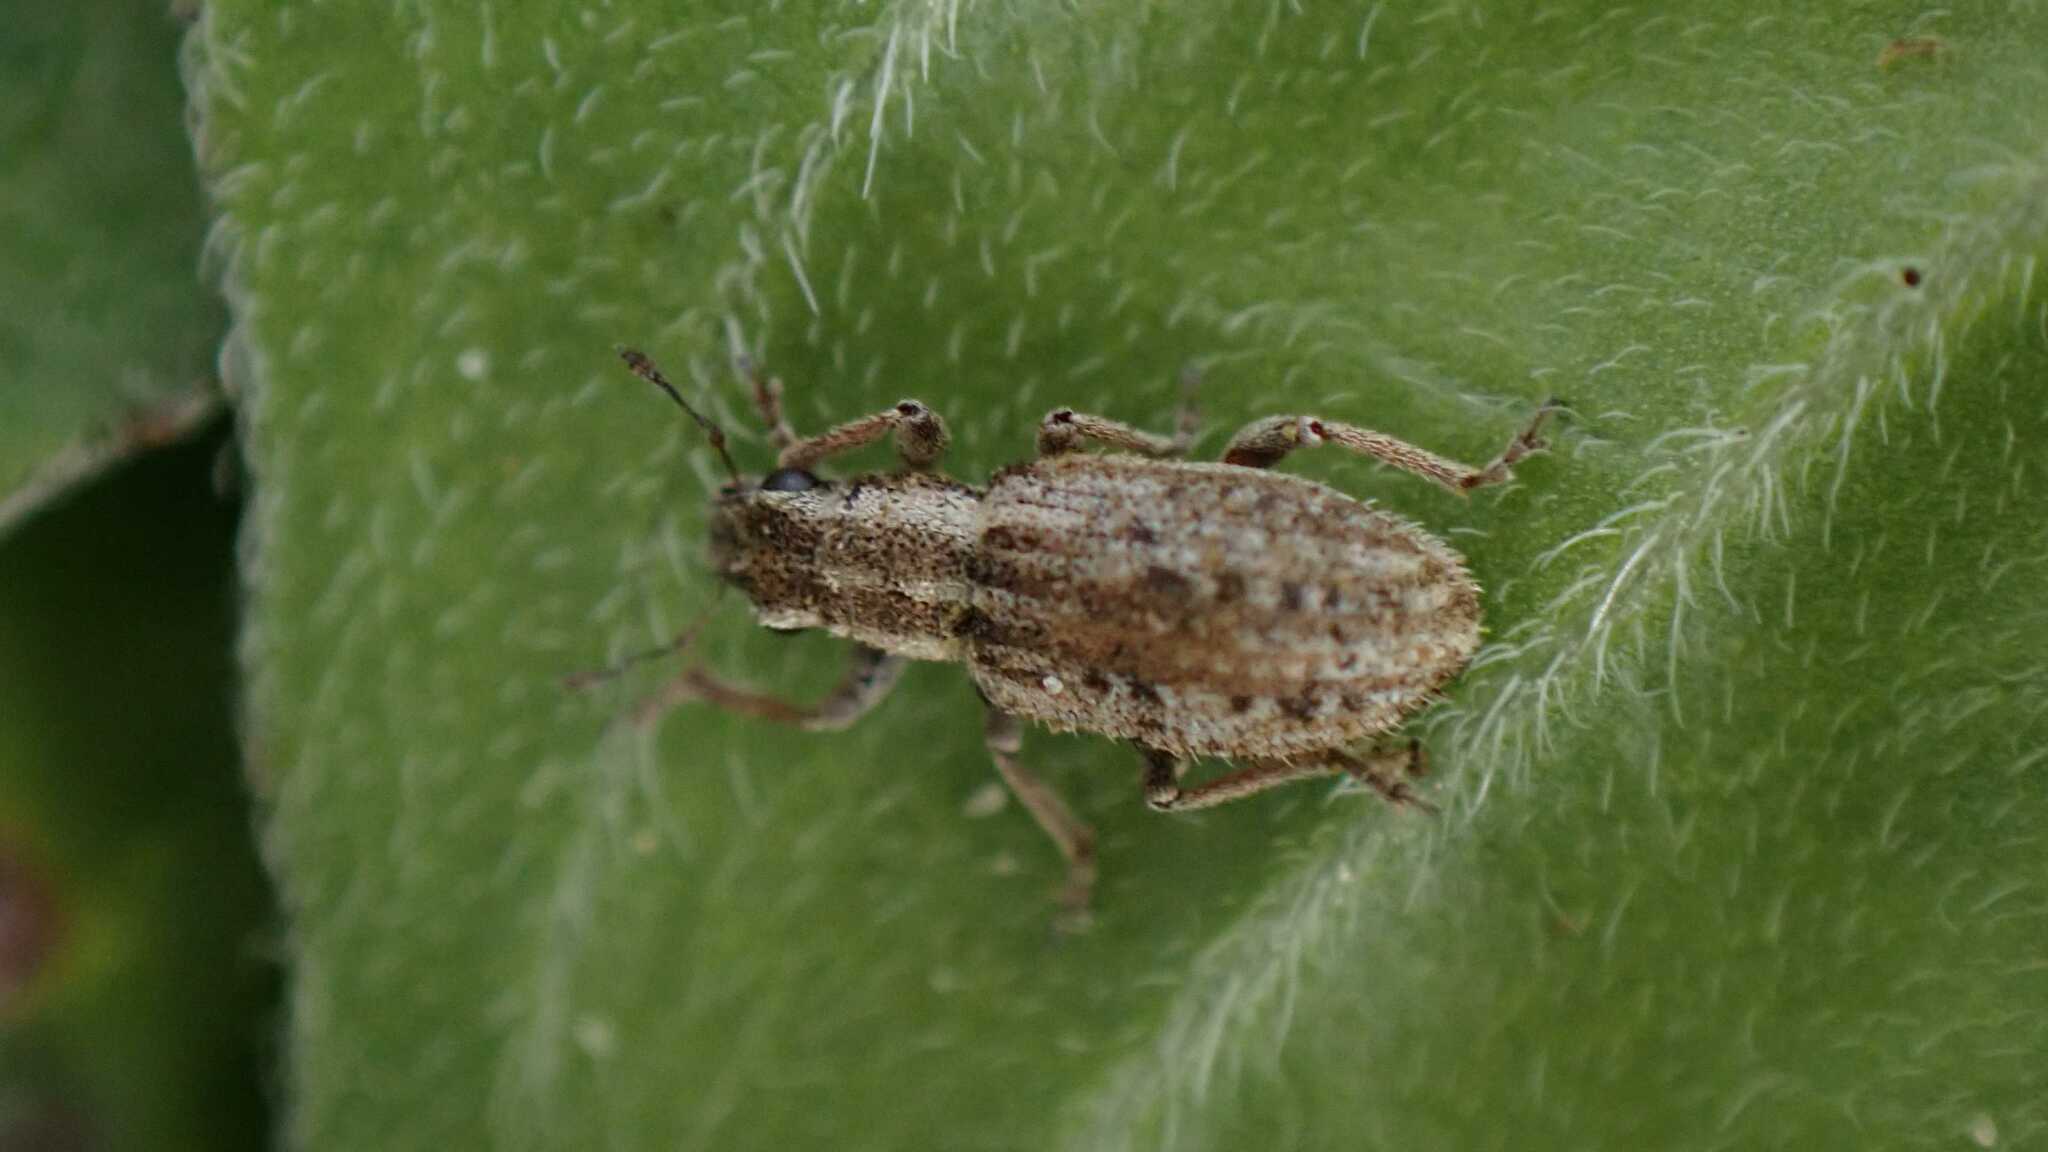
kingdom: Animalia
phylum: Arthropoda
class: Insecta
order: Coleoptera
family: Curculionidae
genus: Sitona
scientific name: Sitona macularius
